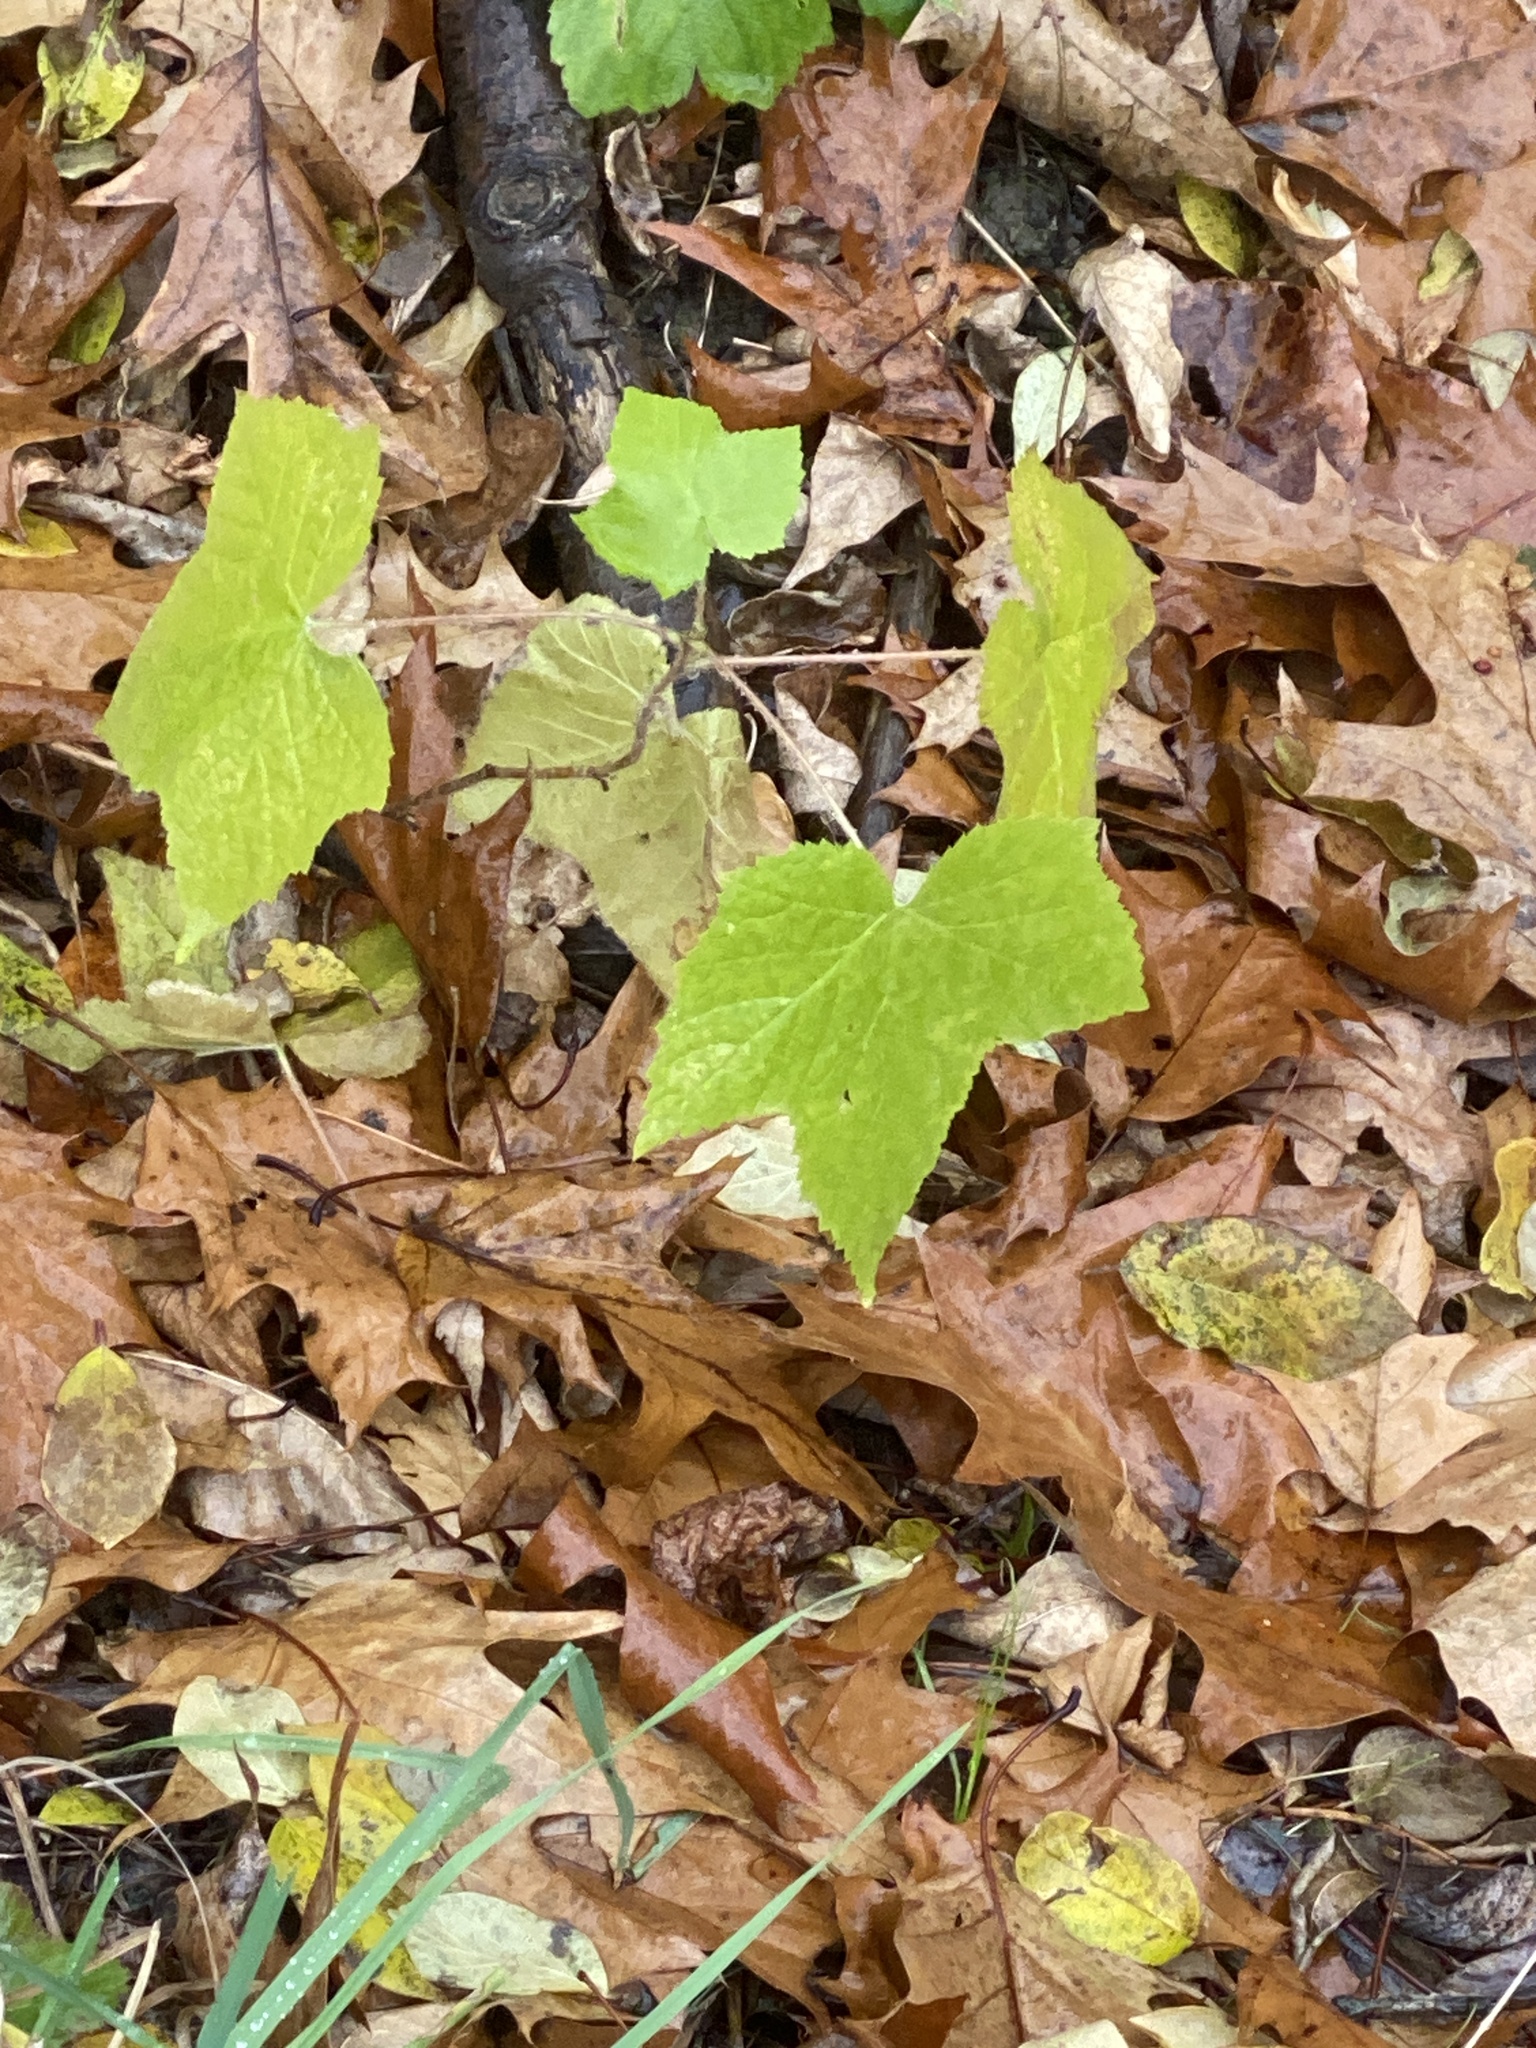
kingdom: Plantae
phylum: Tracheophyta
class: Magnoliopsida
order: Rosales
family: Rosaceae
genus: Rubus
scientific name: Rubus odoratus
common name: Purple-flowered raspberry
